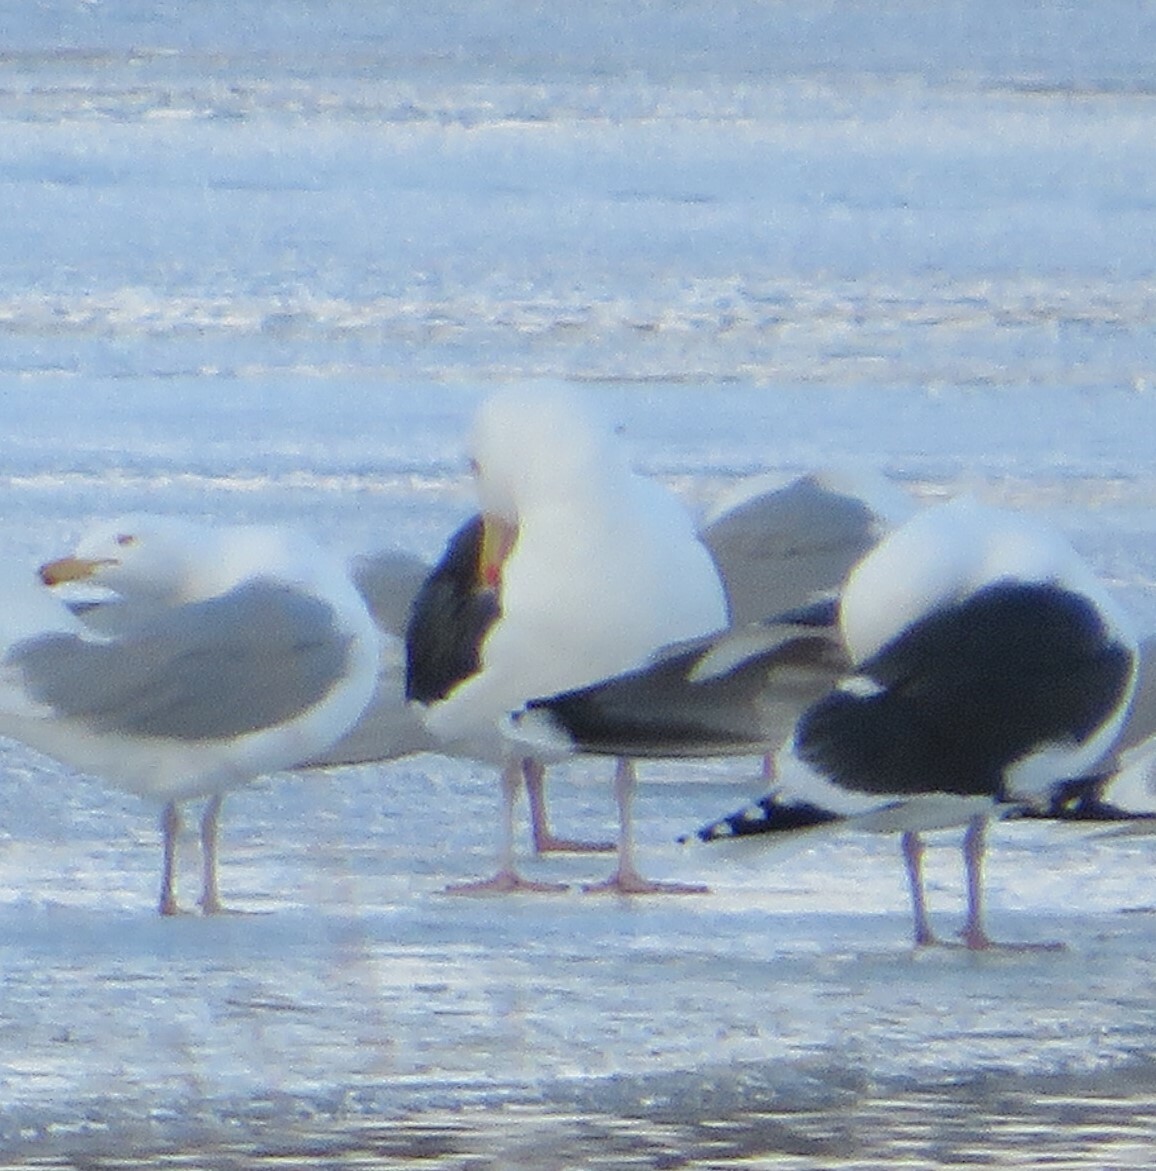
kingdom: Animalia
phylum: Chordata
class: Aves
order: Charadriiformes
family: Laridae
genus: Larus
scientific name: Larus marinus
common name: Great black-backed gull
